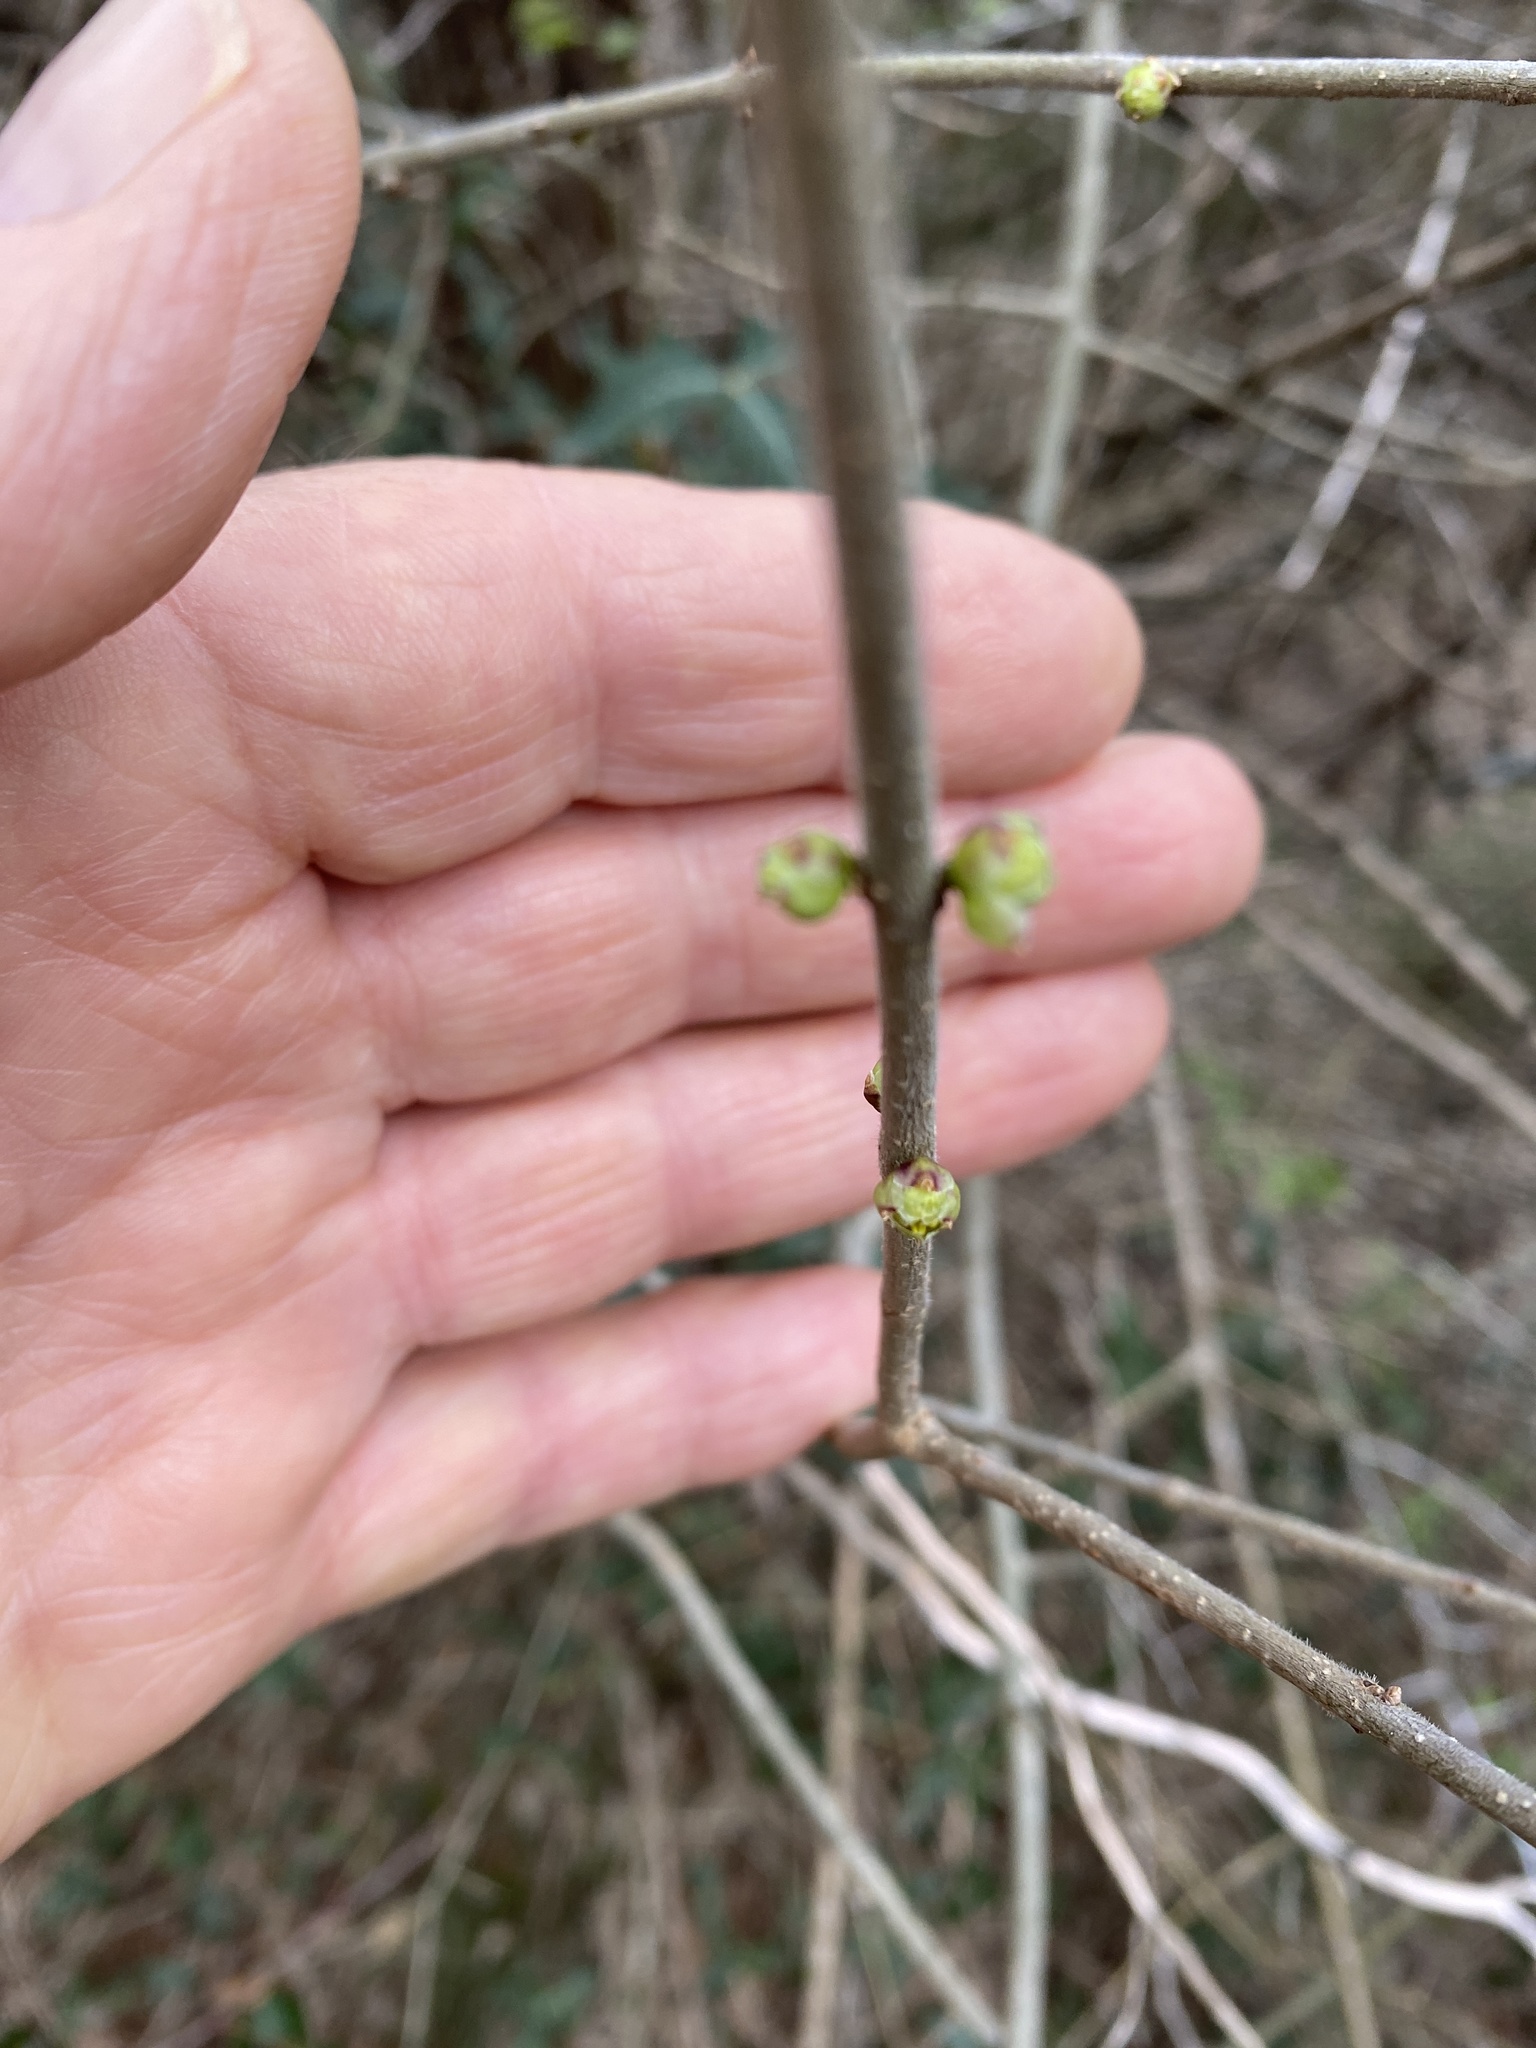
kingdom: Plantae
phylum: Tracheophyta
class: Magnoliopsida
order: Lamiales
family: Oleaceae
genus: Forestiera
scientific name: Forestiera pubescens
